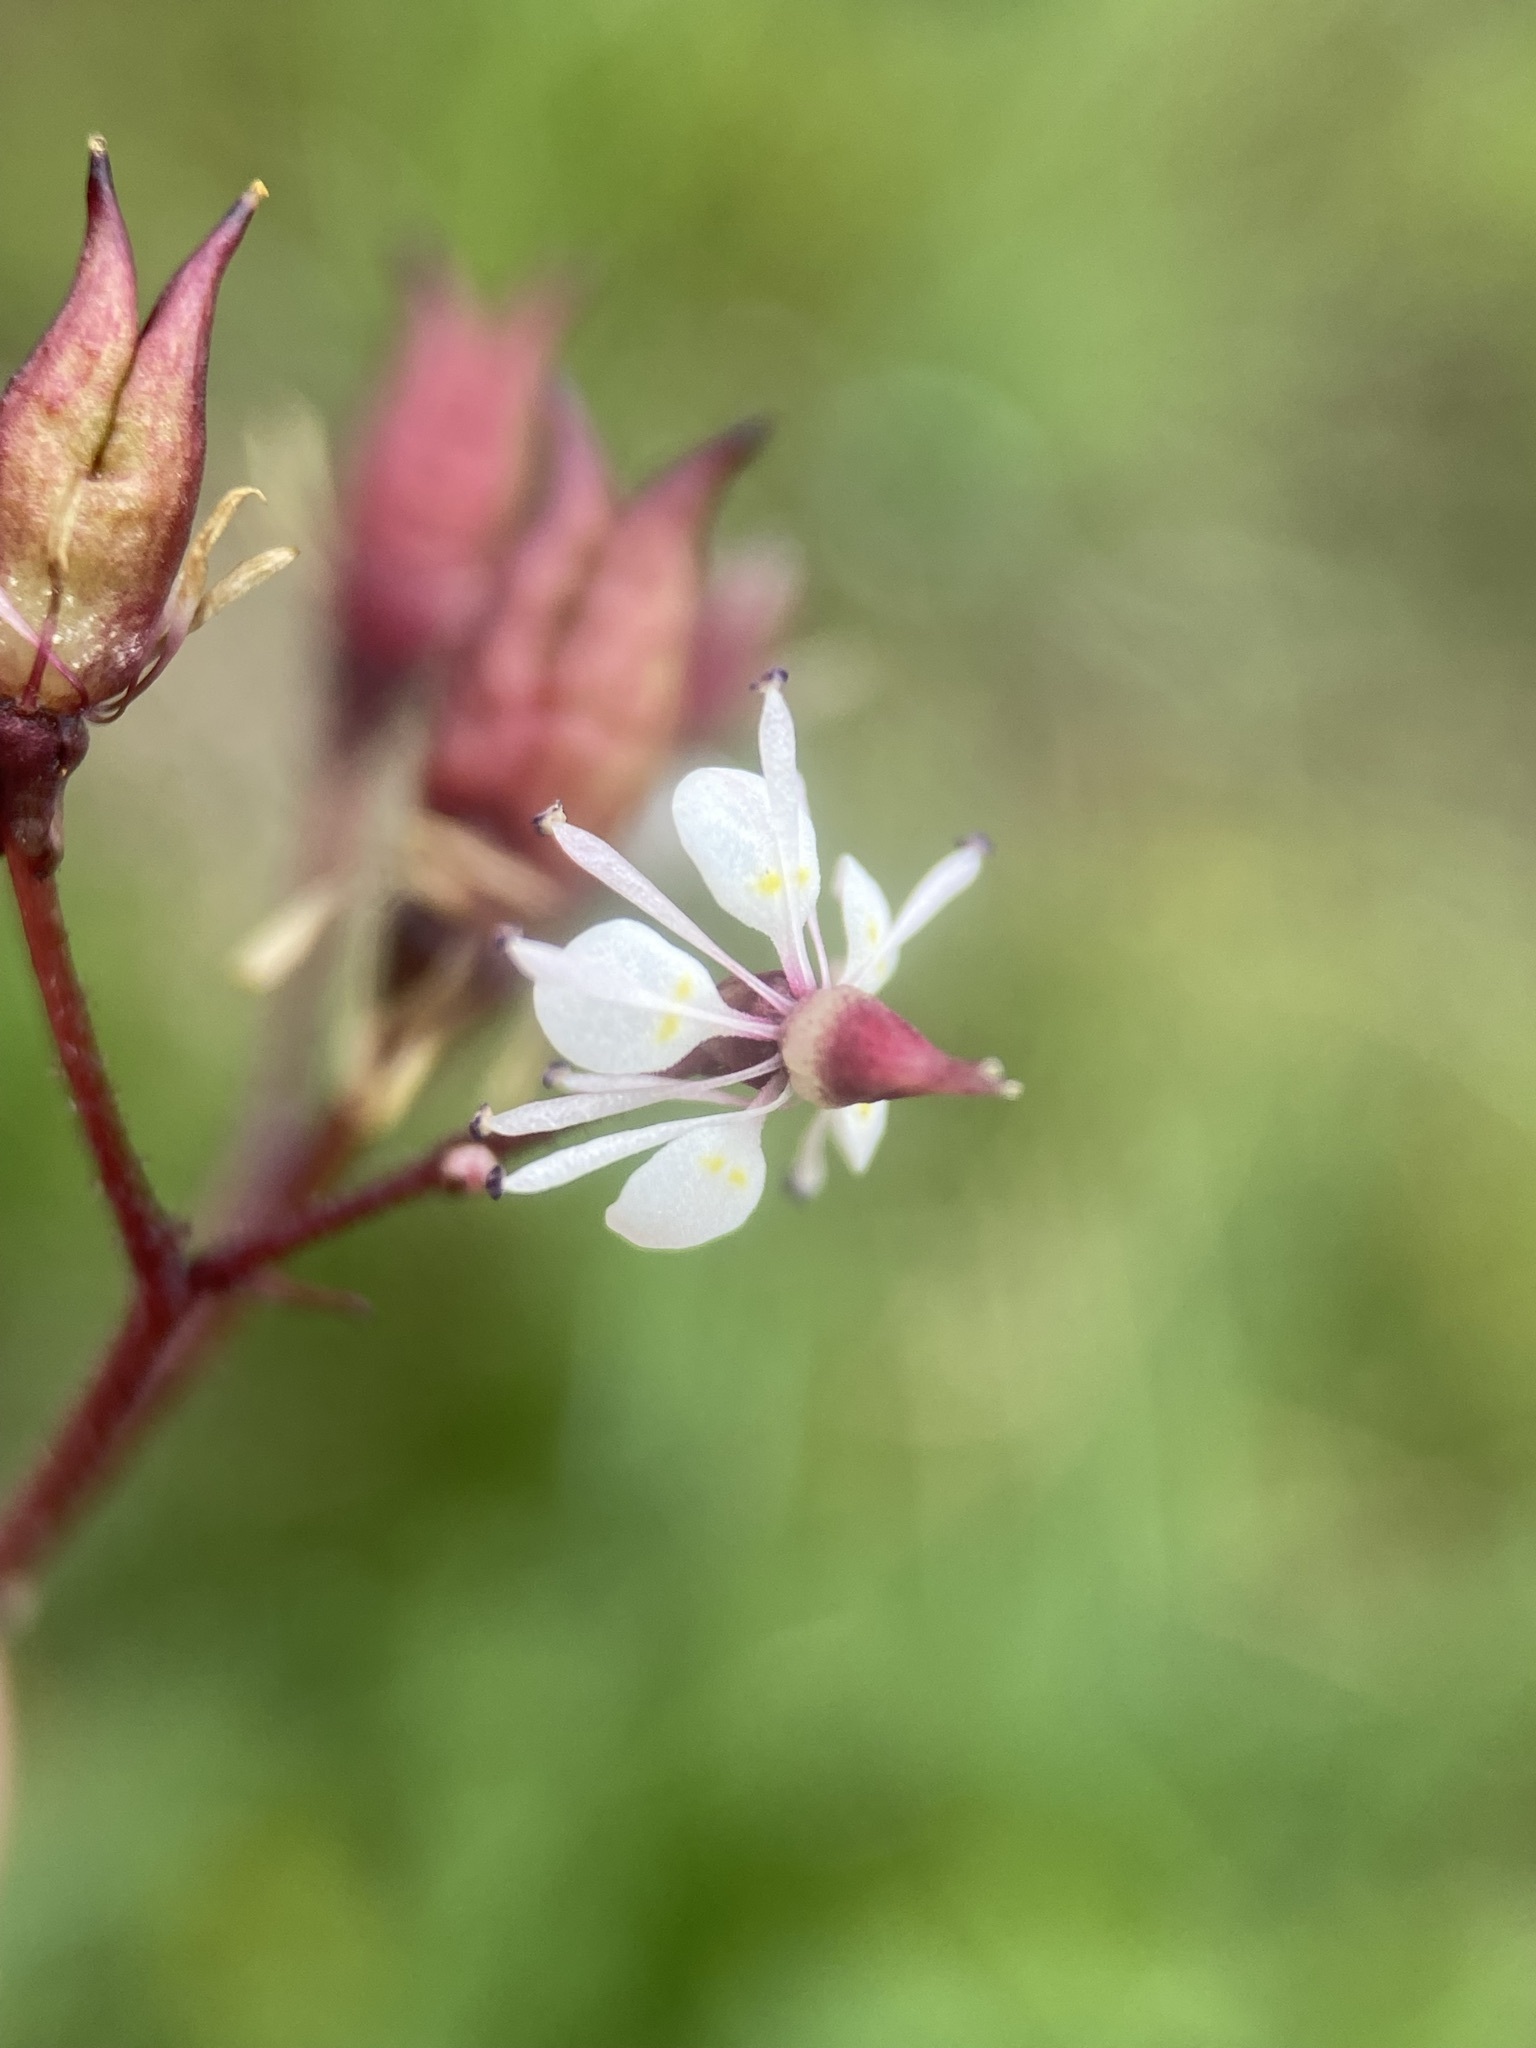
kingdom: Plantae
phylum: Tracheophyta
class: Magnoliopsida
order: Saxifragales
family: Saxifragaceae
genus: Micranthes
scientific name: Micranthes odontoloma
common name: Brook saxifrage
